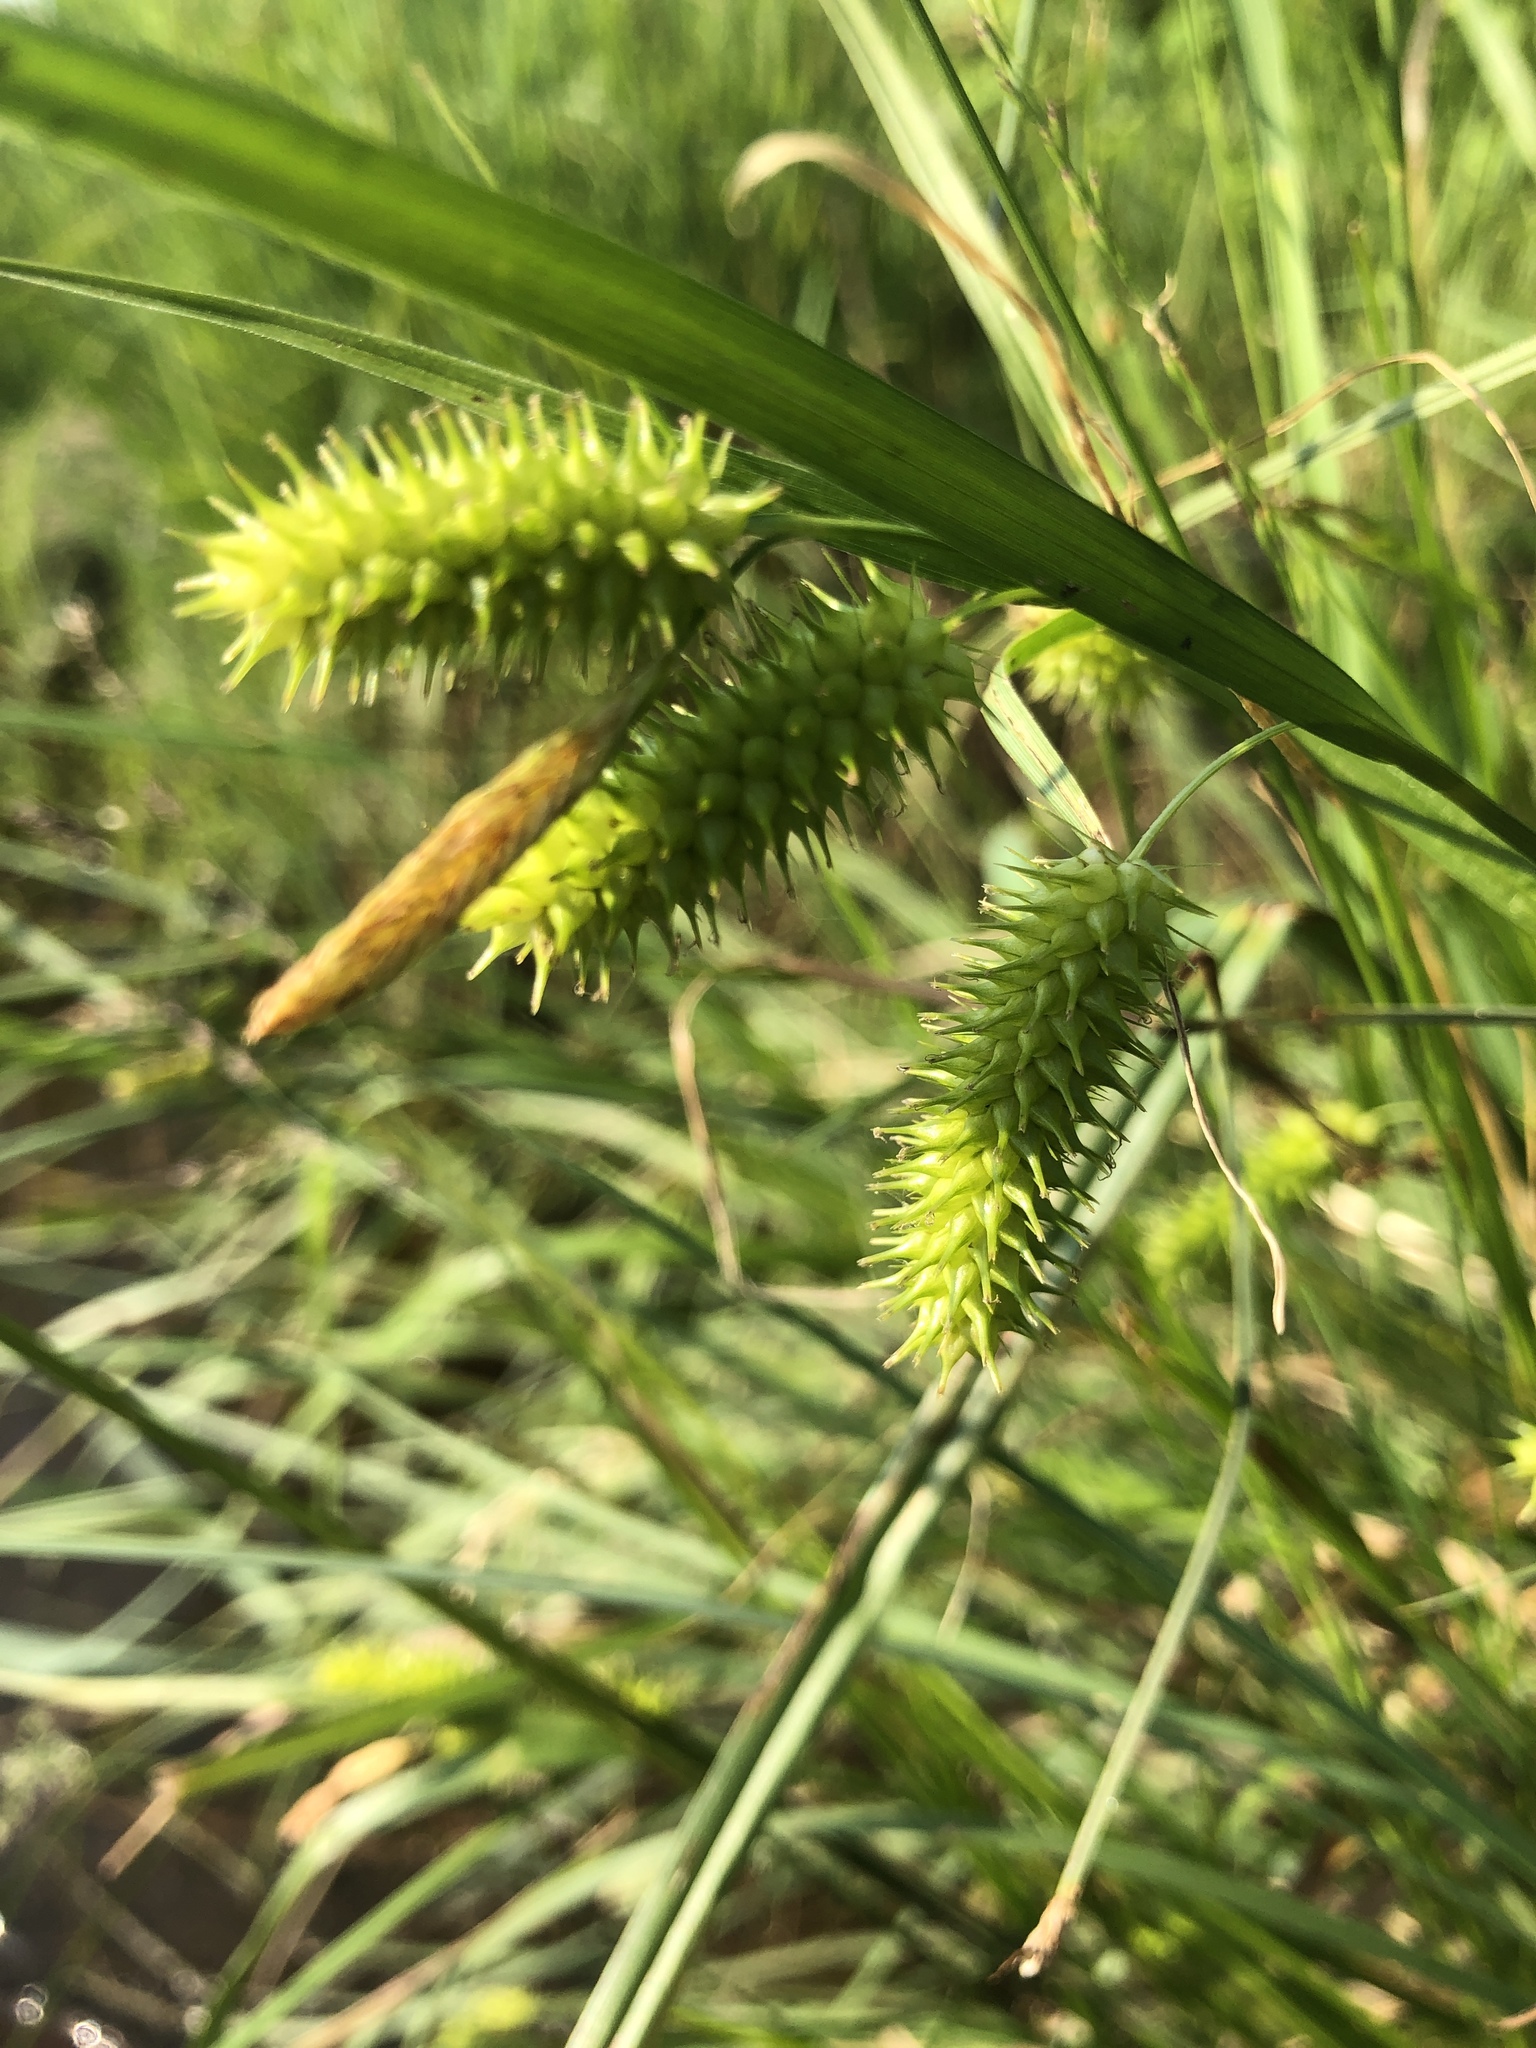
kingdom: Plantae
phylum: Tracheophyta
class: Liliopsida
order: Poales
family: Cyperaceae
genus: Carex
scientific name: Carex hystericina
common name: Bottlebrush sedge
